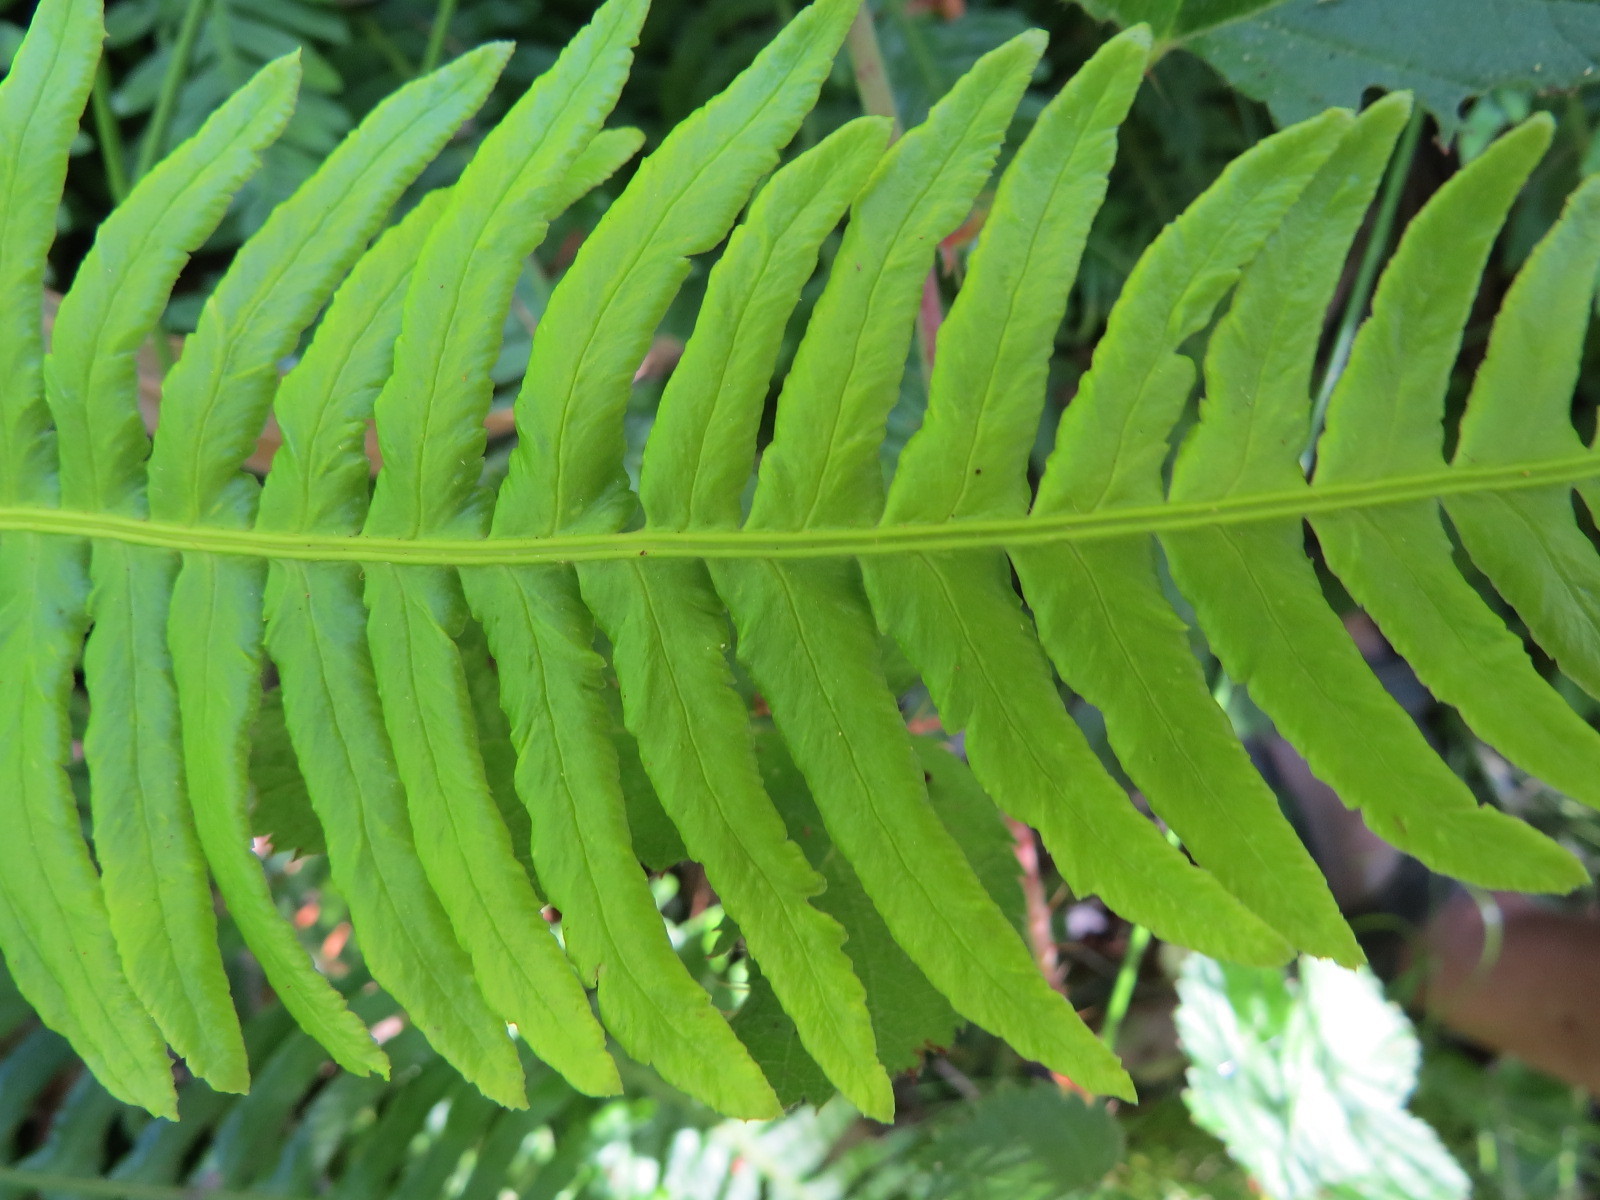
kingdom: Plantae
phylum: Tracheophyta
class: Polypodiopsida
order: Polypodiales
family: Blechnaceae
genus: Struthiopteris
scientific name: Struthiopteris spicant
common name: Deer fern
